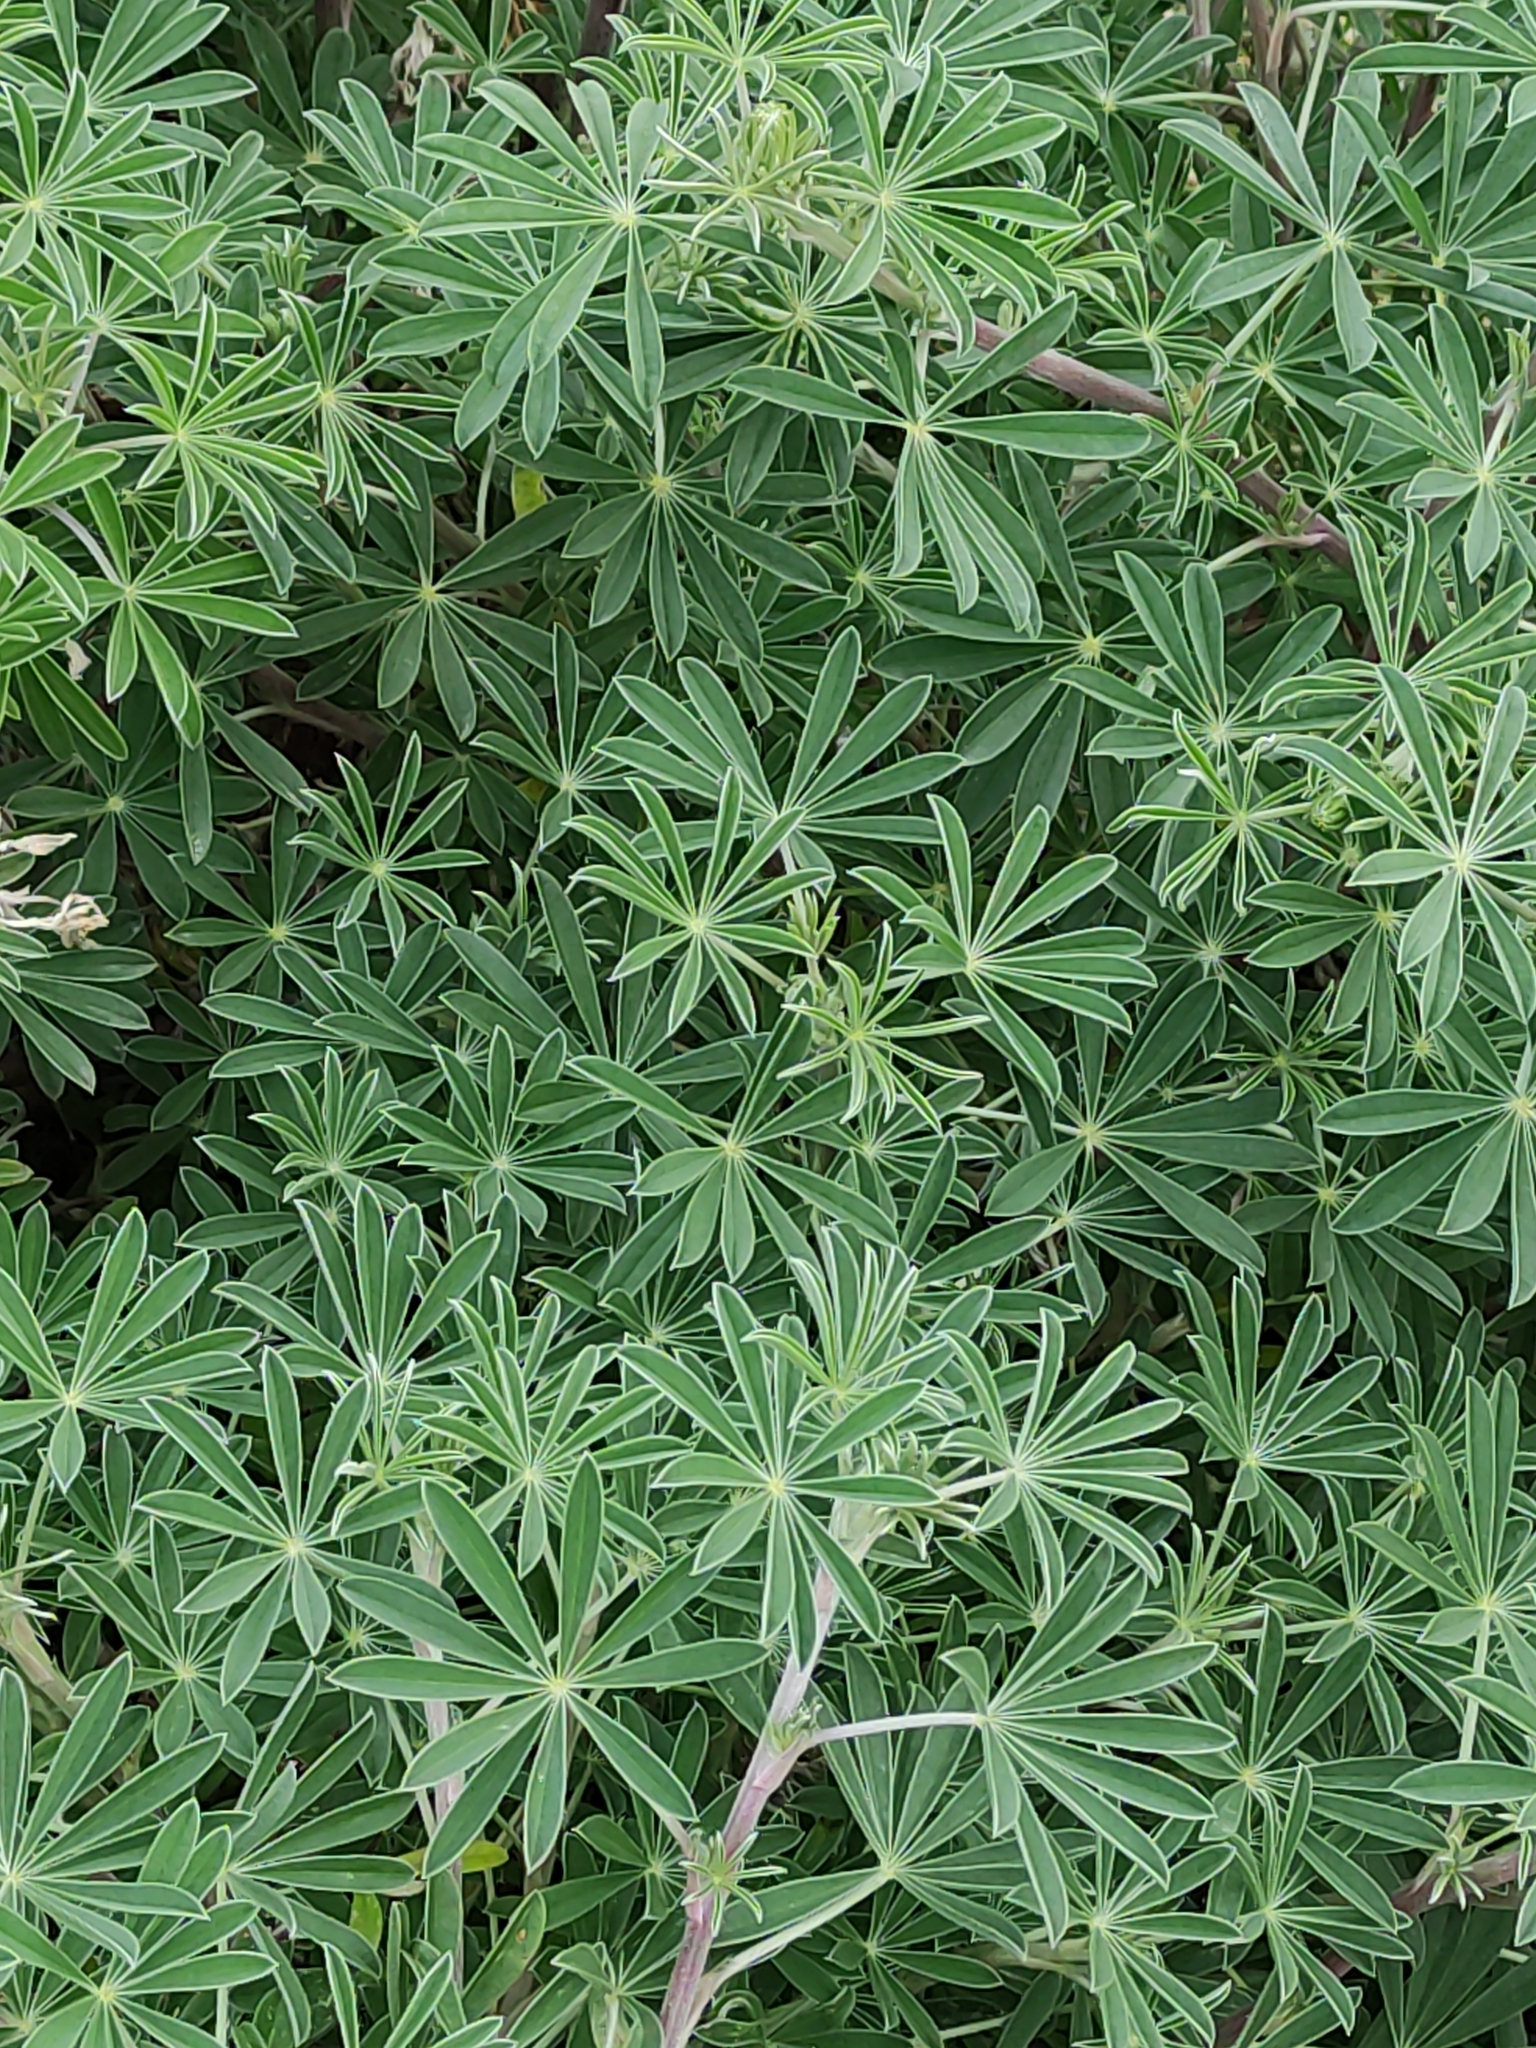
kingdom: Plantae
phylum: Tracheophyta
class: Magnoliopsida
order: Fabales
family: Fabaceae
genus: Lupinus
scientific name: Lupinus arboreus
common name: Yellow bush lupine
